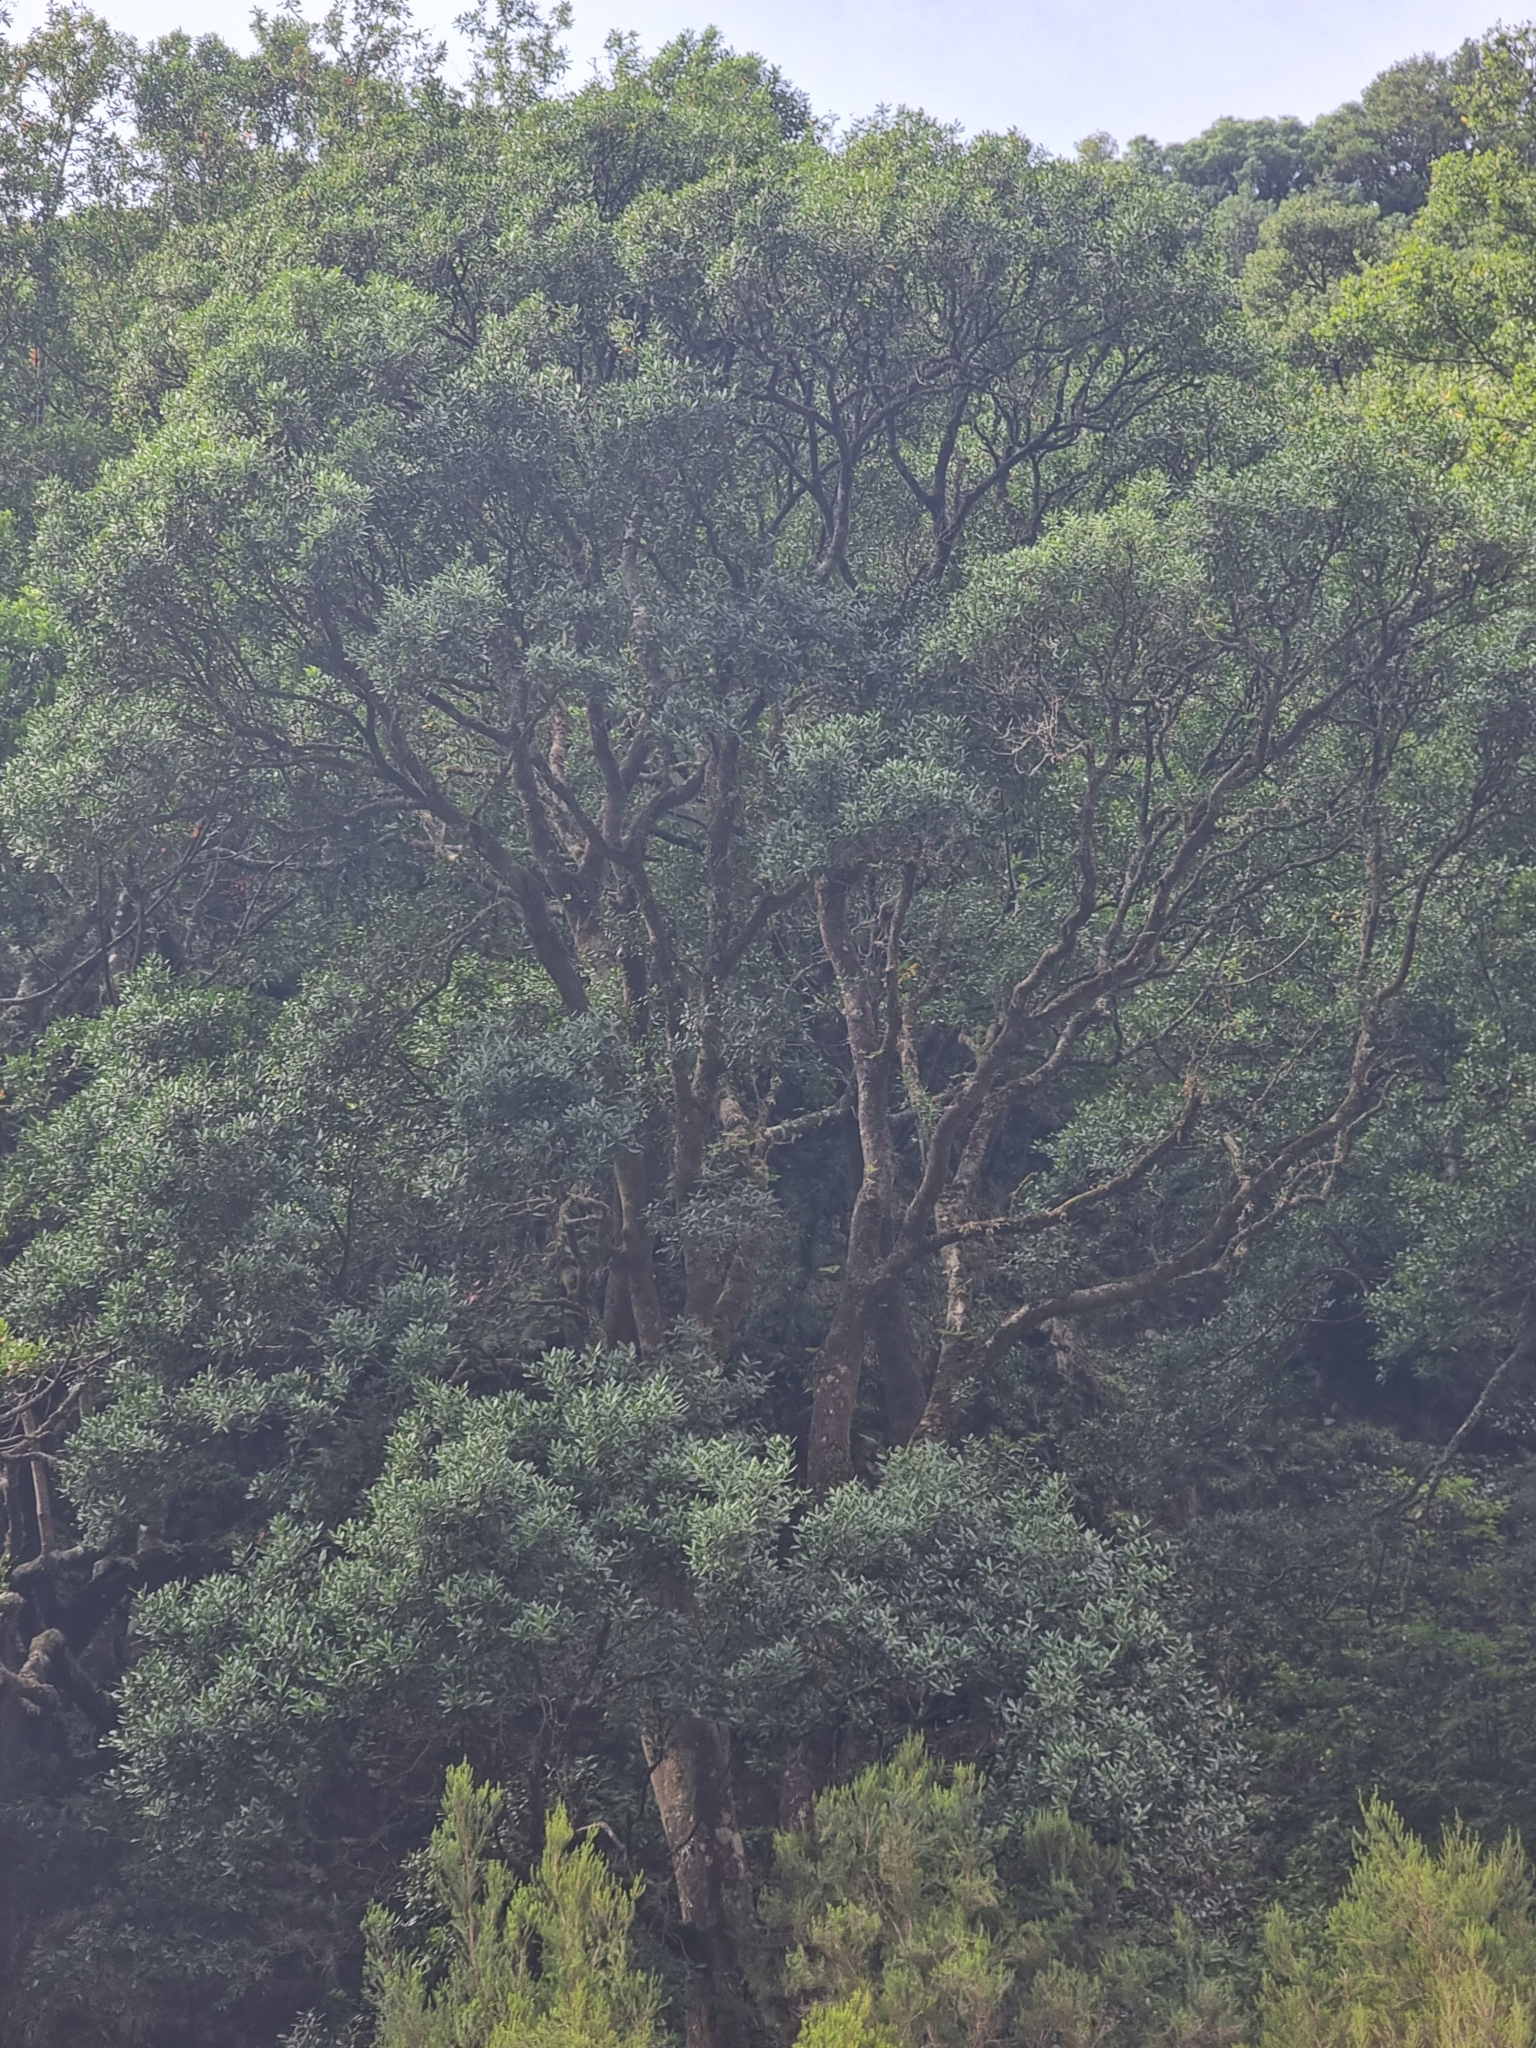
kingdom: Plantae
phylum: Tracheophyta
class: Magnoliopsida
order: Lamiales
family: Oleaceae
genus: Picconia
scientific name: Picconia excelsa
